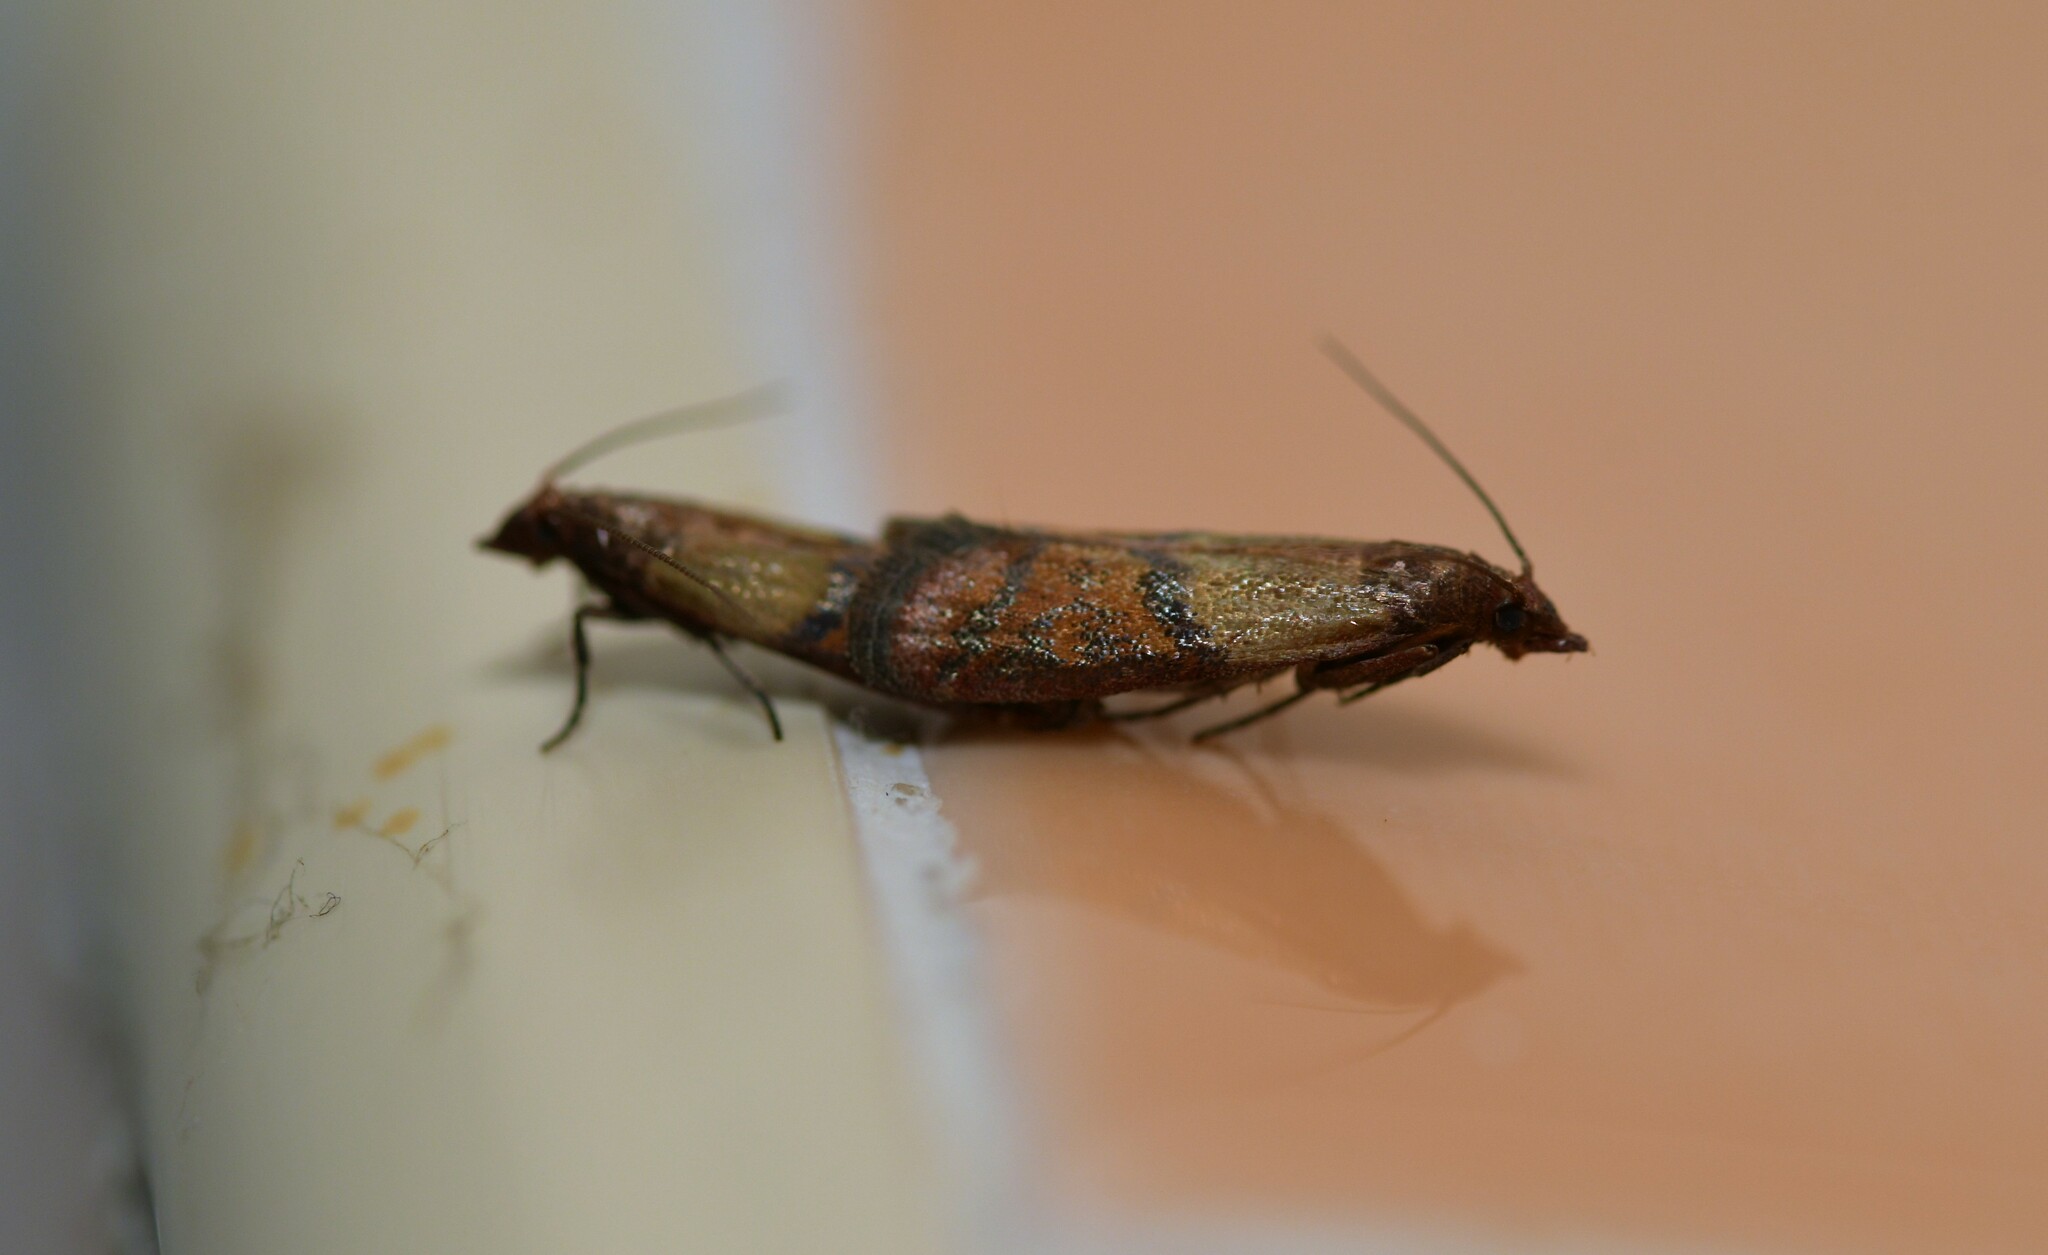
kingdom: Animalia
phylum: Arthropoda
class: Insecta
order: Lepidoptera
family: Pyralidae
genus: Plodia
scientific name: Plodia interpunctella
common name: Indian meal moth
